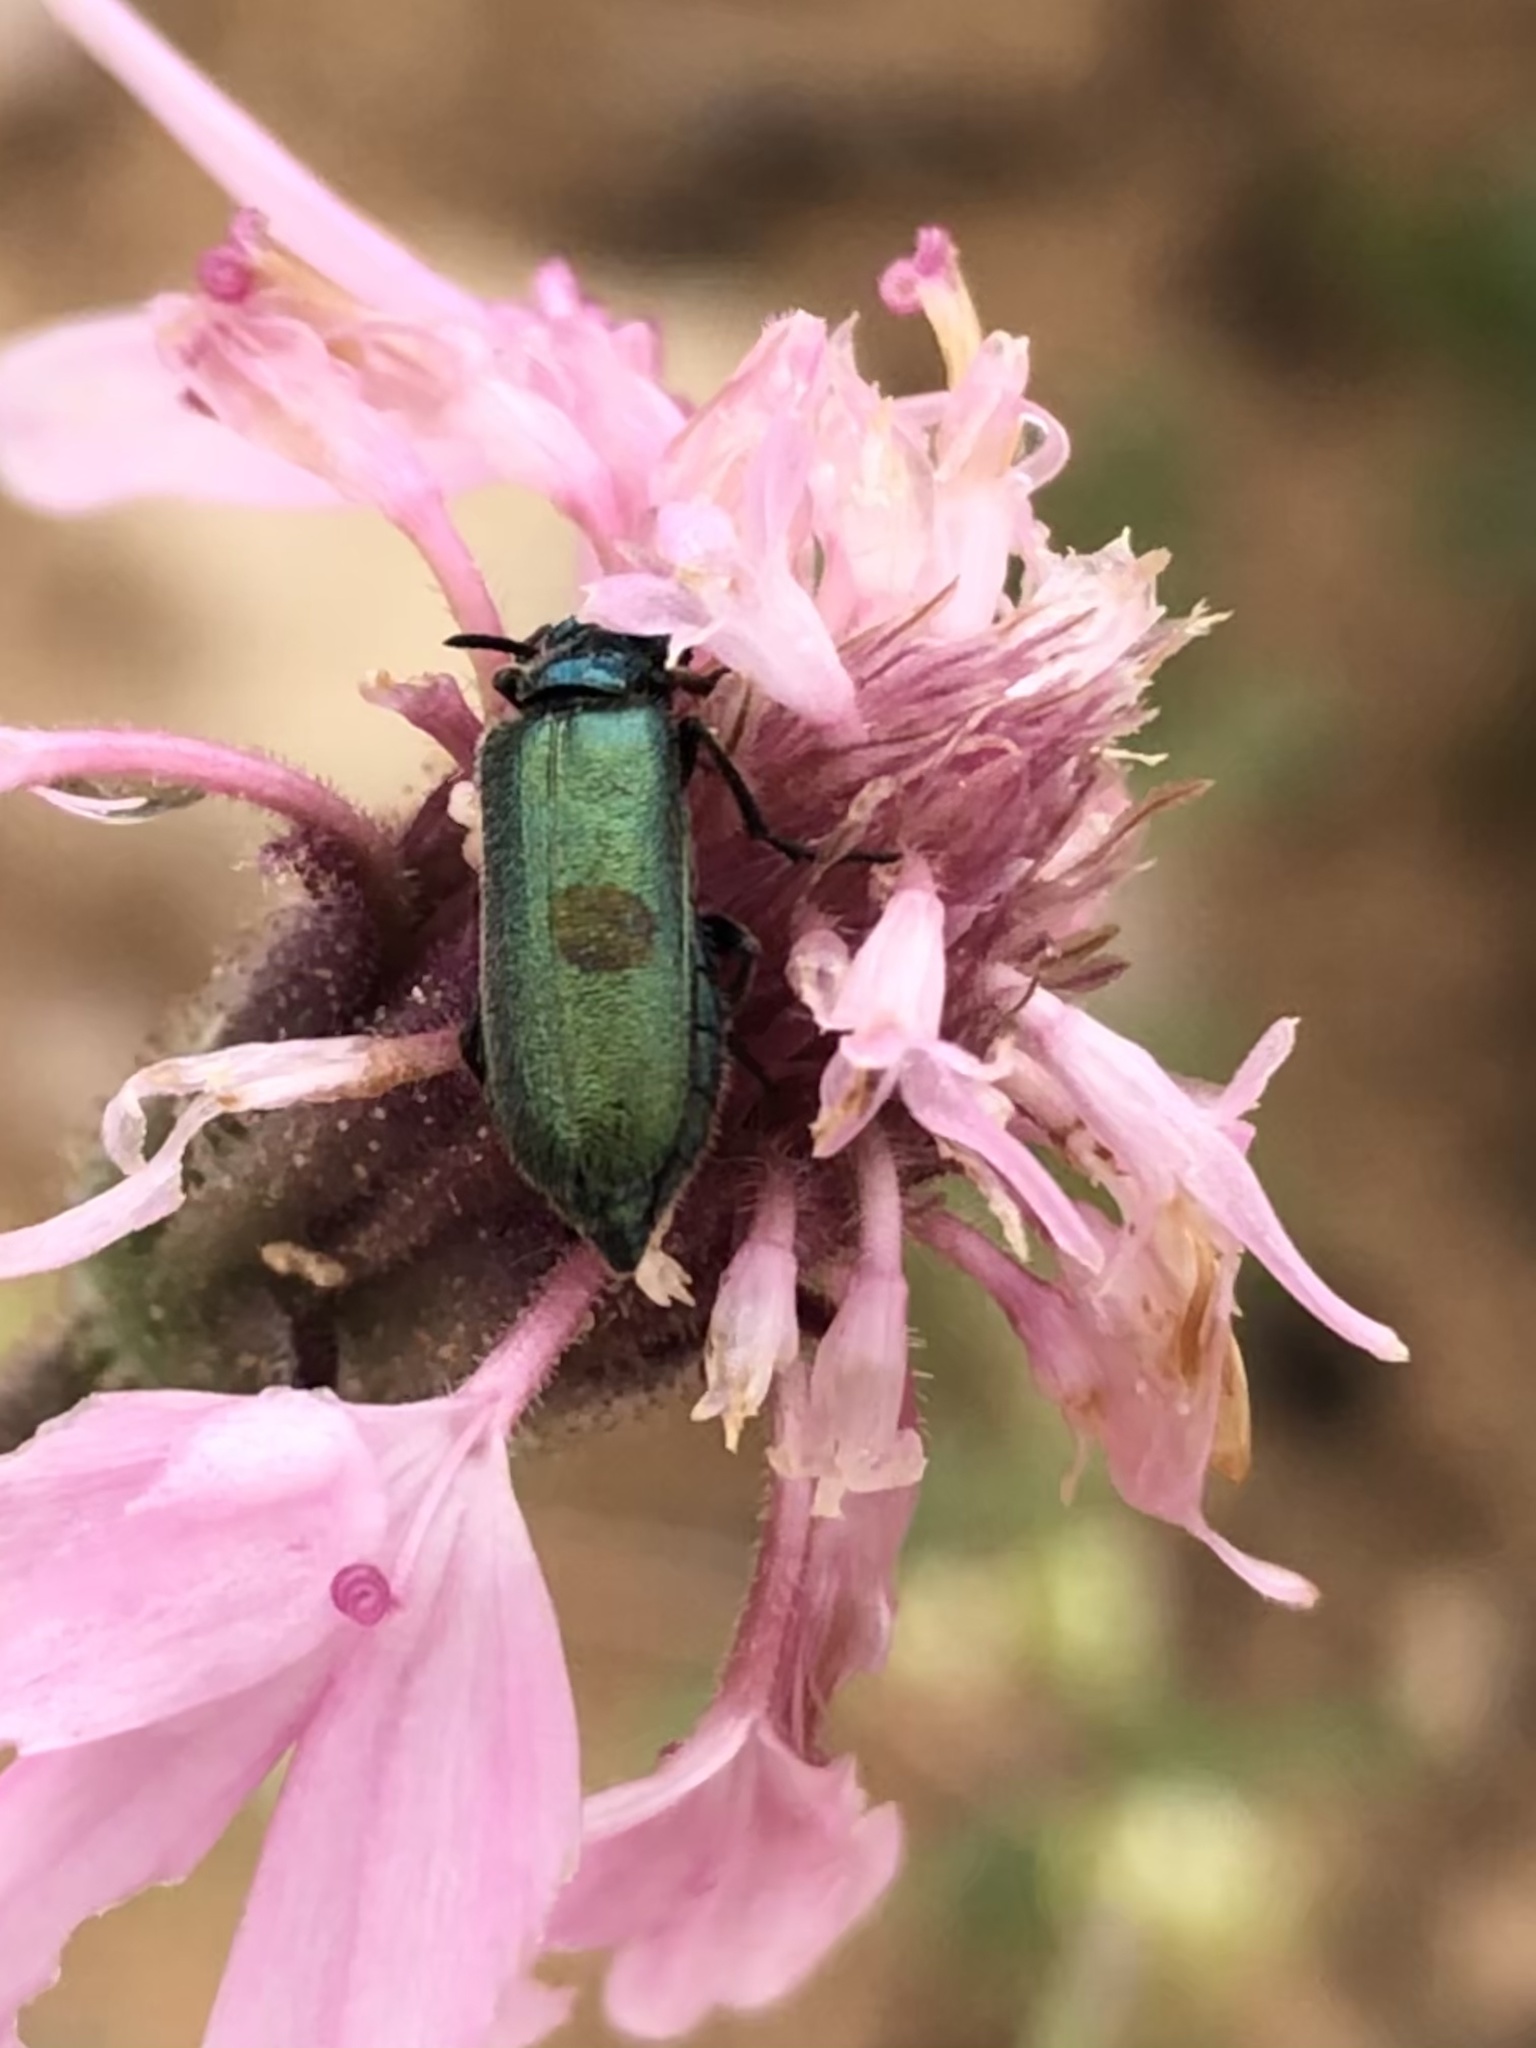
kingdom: Animalia
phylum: Arthropoda
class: Insecta
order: Coleoptera
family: Meloidae
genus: Eupompha
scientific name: Eupompha viridis
